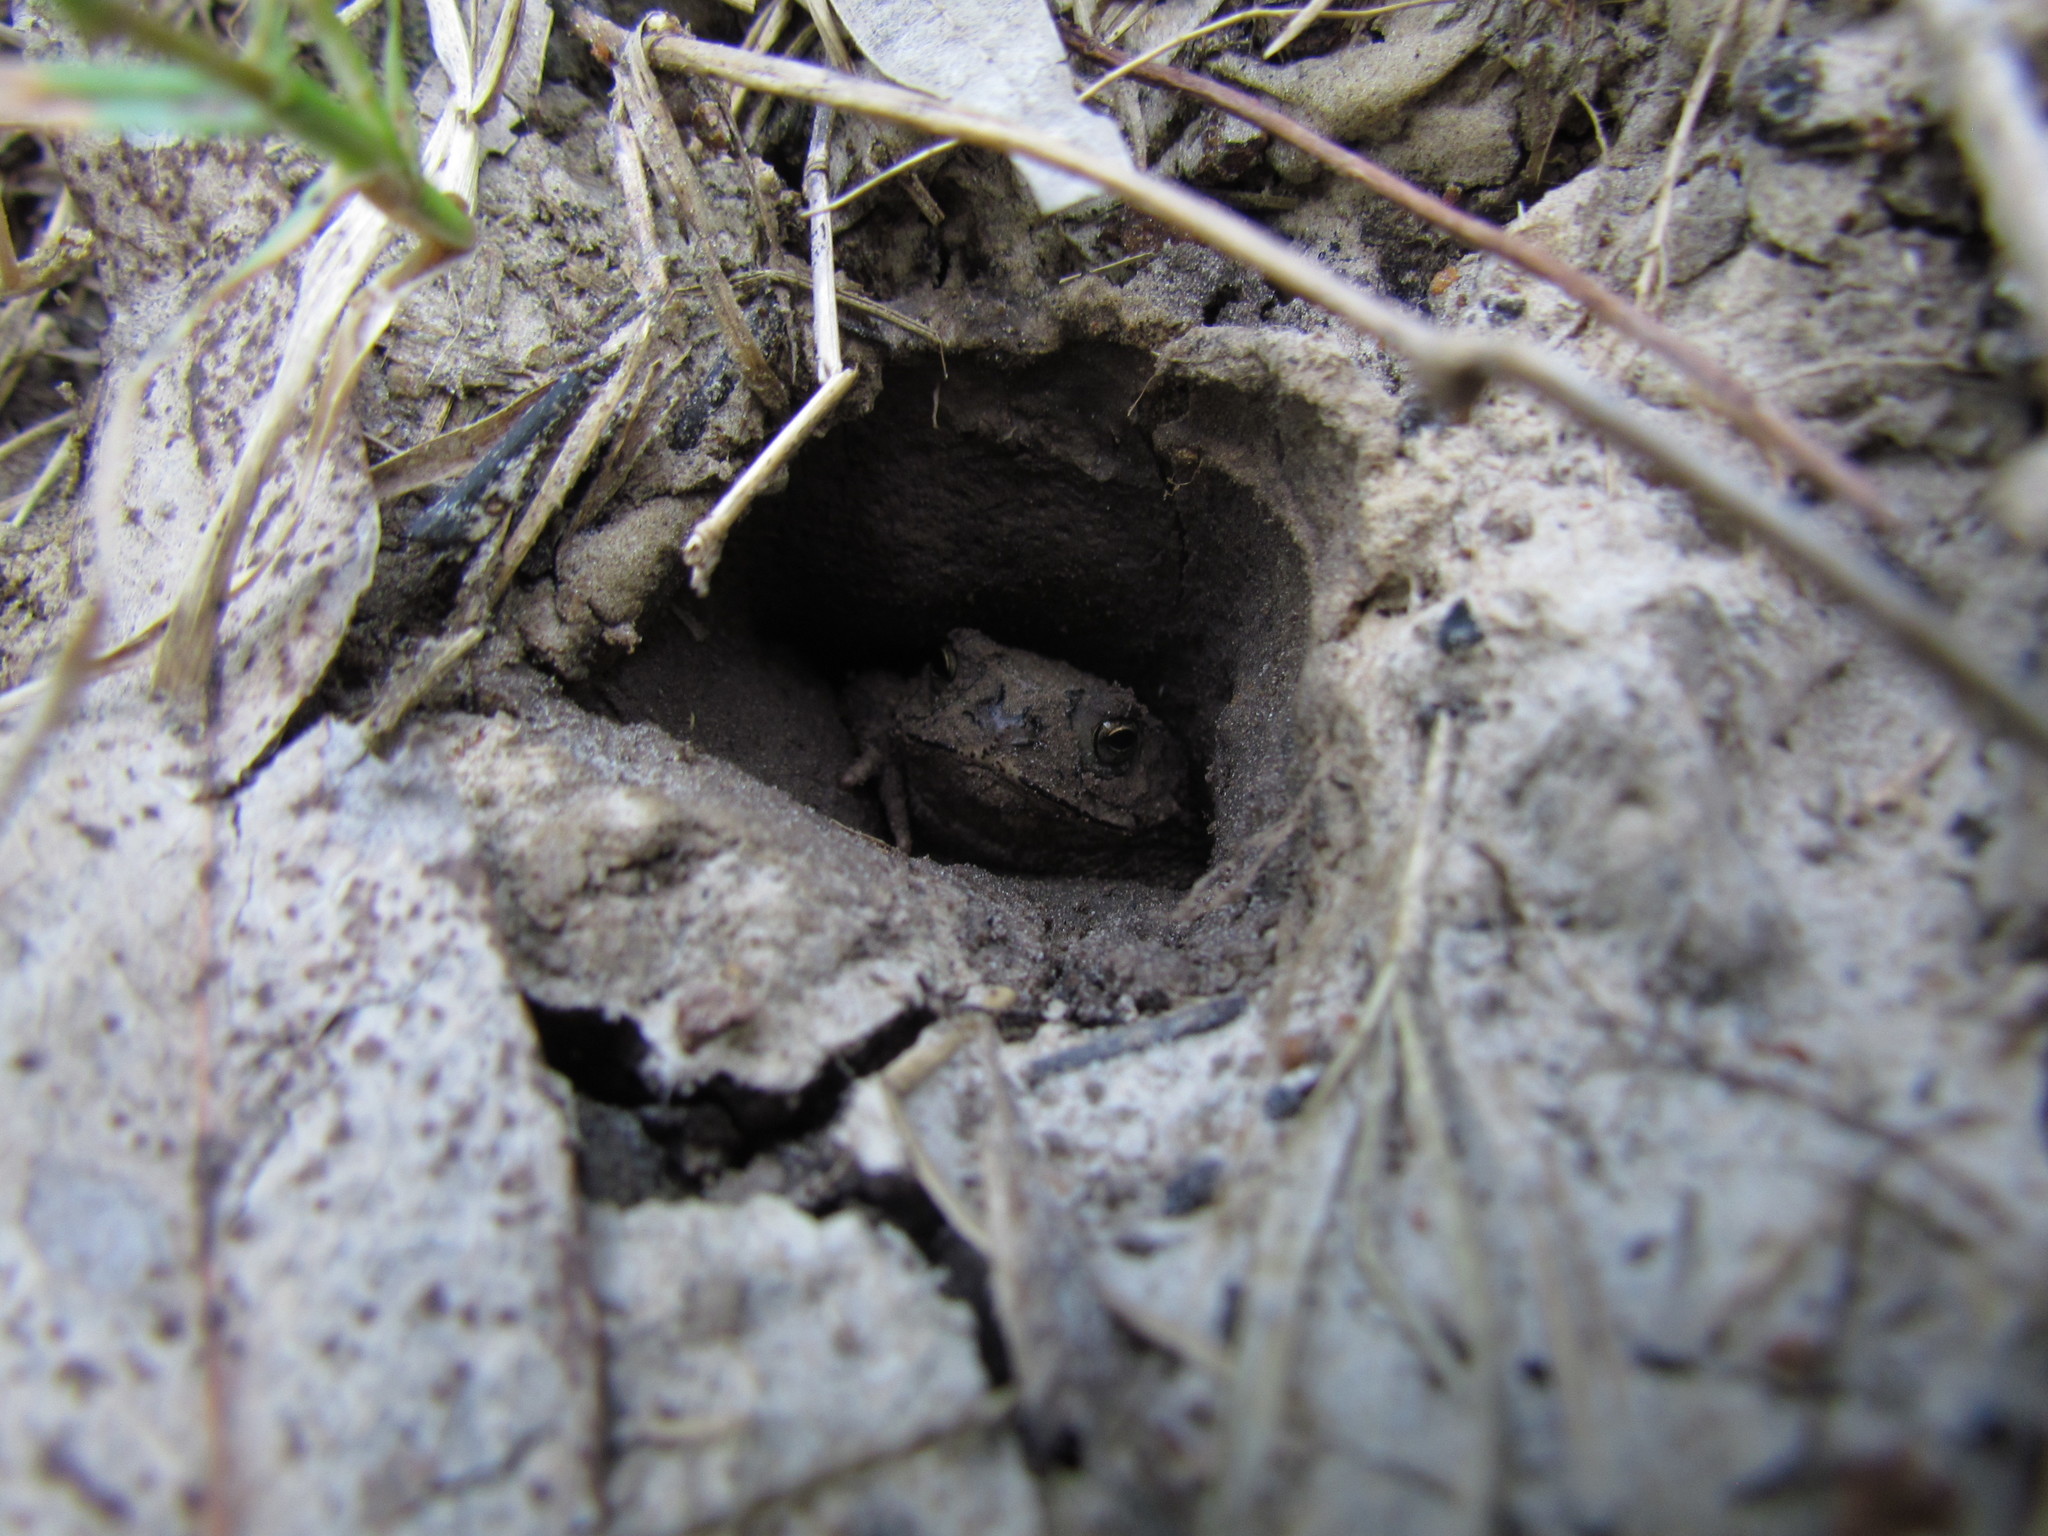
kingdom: Animalia
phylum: Chordata
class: Amphibia
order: Anura
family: Bufonidae
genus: Rhinella
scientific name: Rhinella dorbignyi
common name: D´orbigny’s toad
